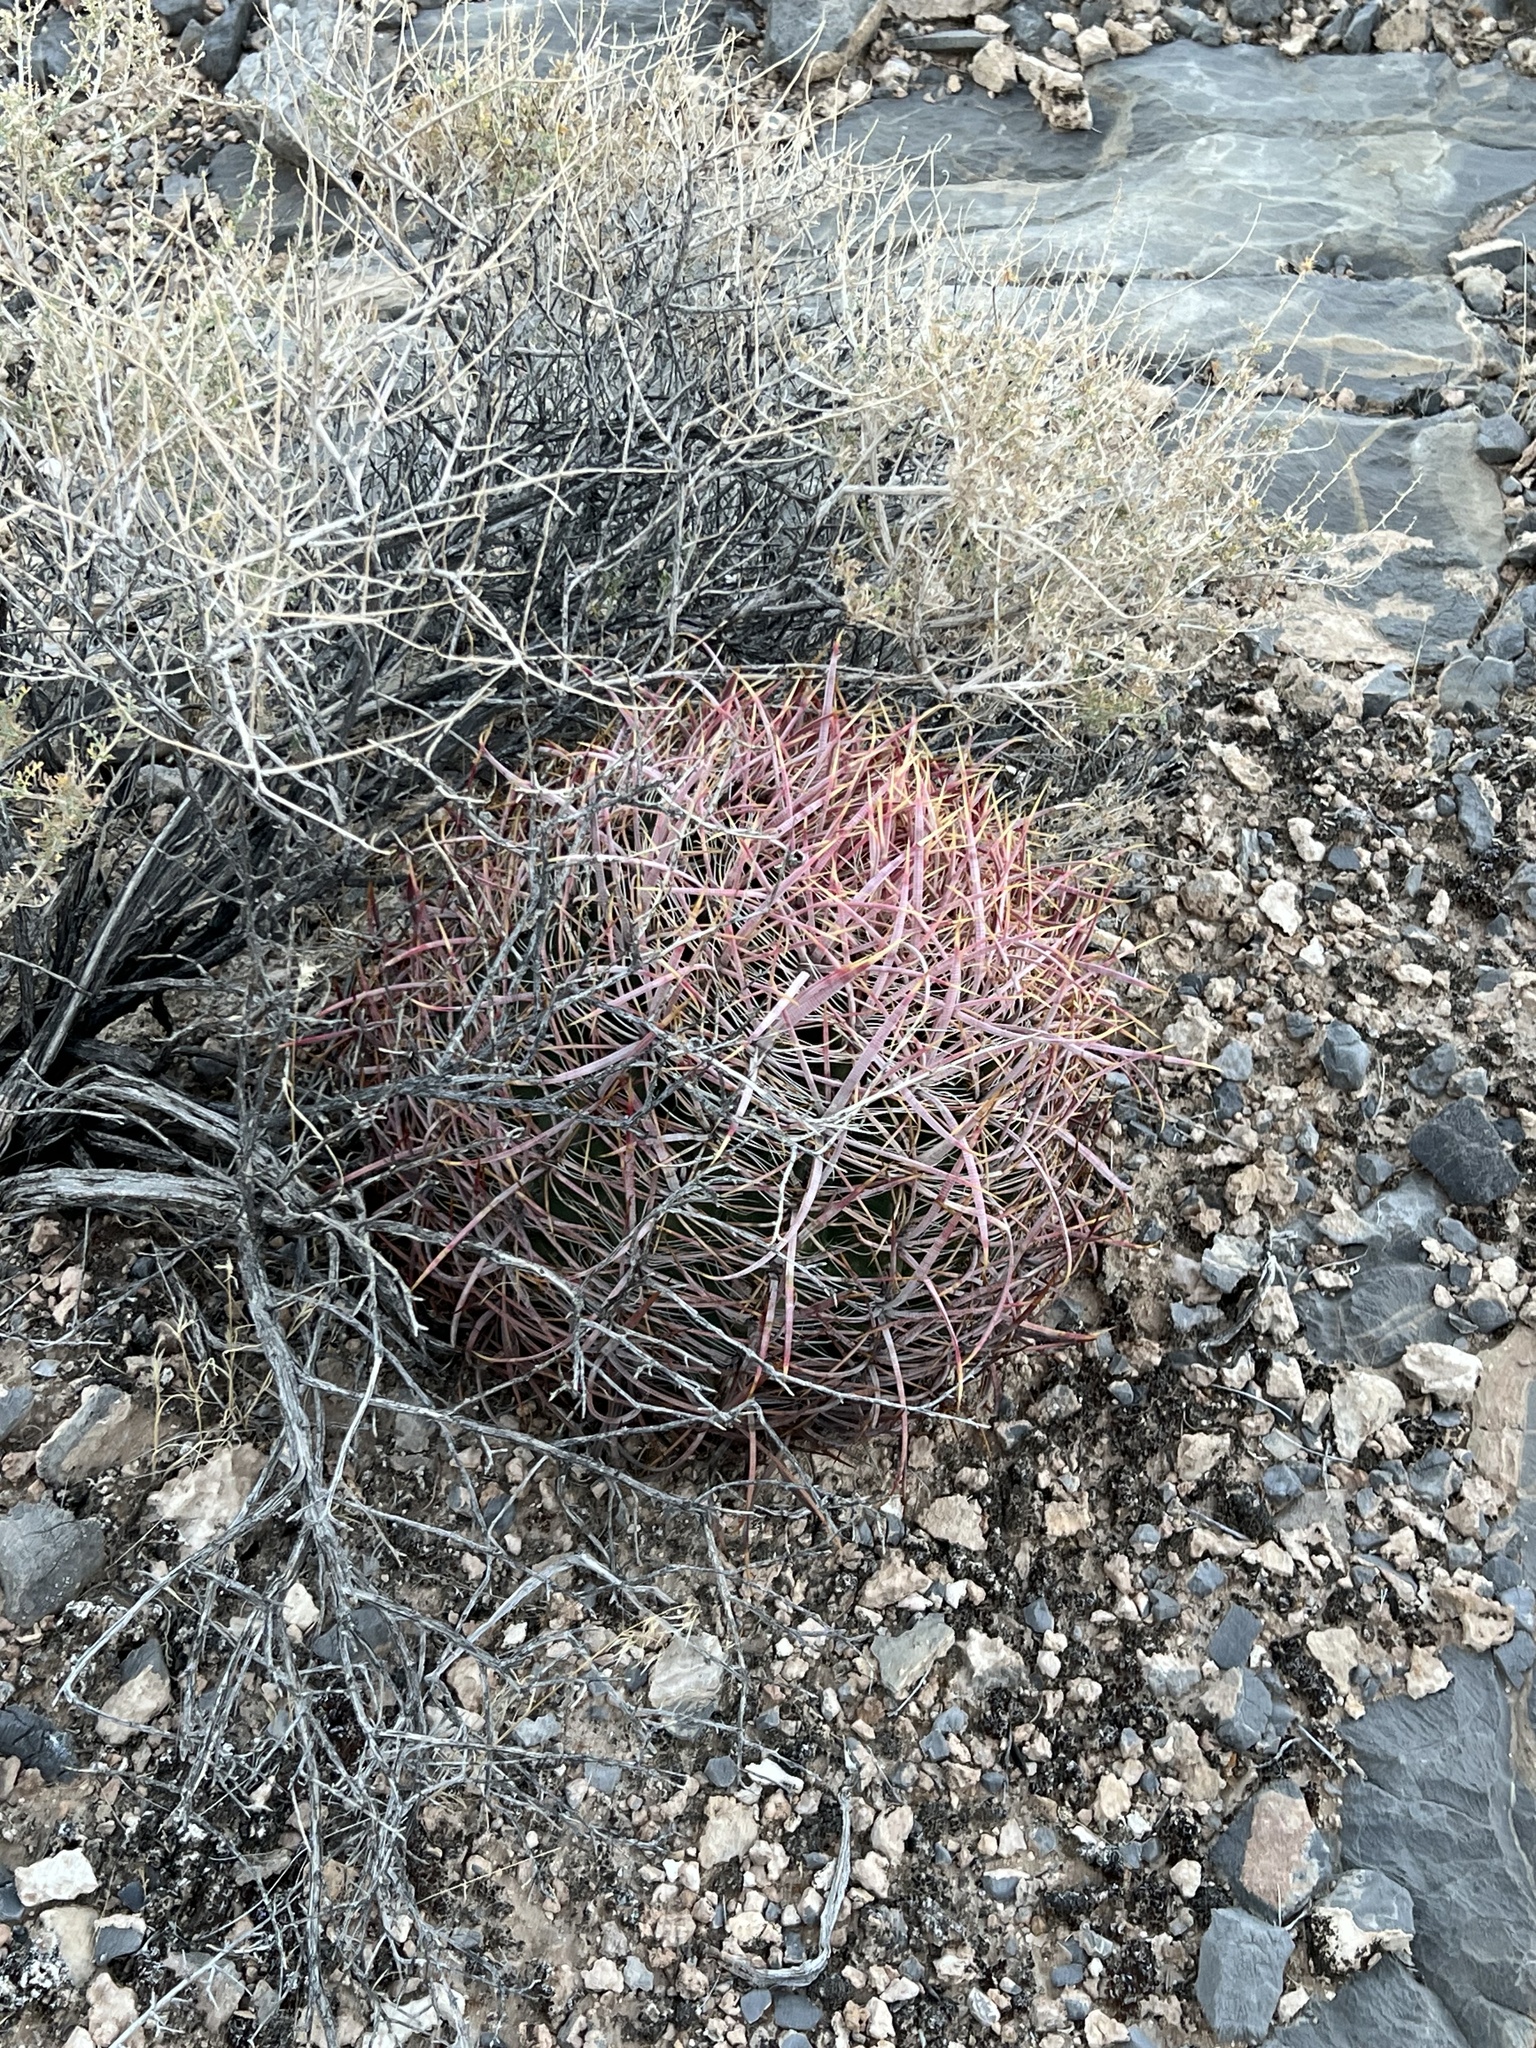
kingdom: Plantae
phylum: Tracheophyta
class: Magnoliopsida
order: Caryophyllales
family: Cactaceae
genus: Ferocactus
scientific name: Ferocactus cylindraceus
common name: California barrel cactus
